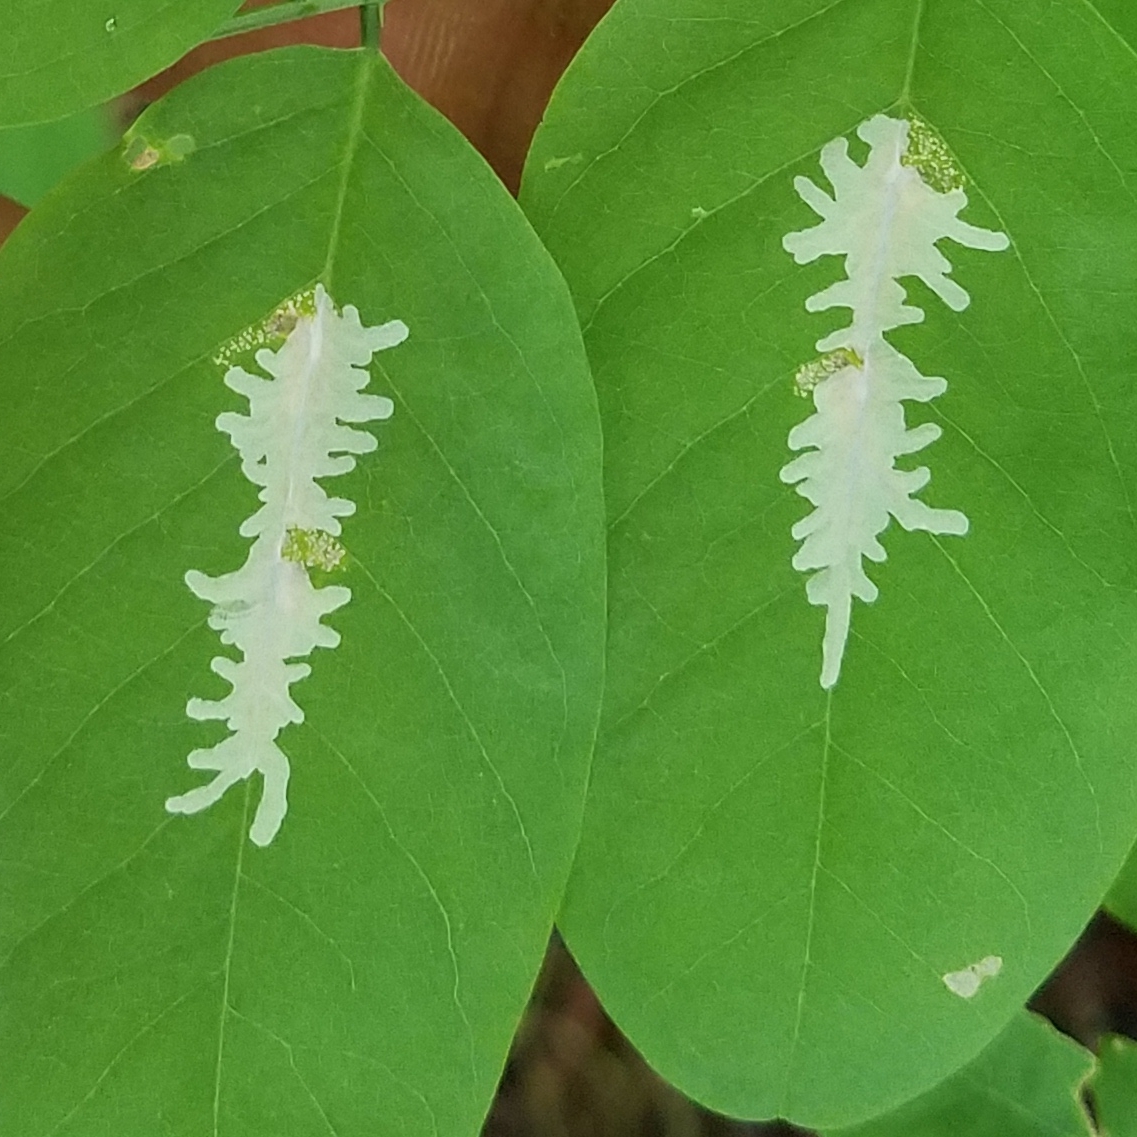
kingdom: Animalia
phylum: Arthropoda
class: Insecta
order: Lepidoptera
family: Gracillariidae
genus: Parectopa
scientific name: Parectopa robiniella
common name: Locust digitate leafminer
